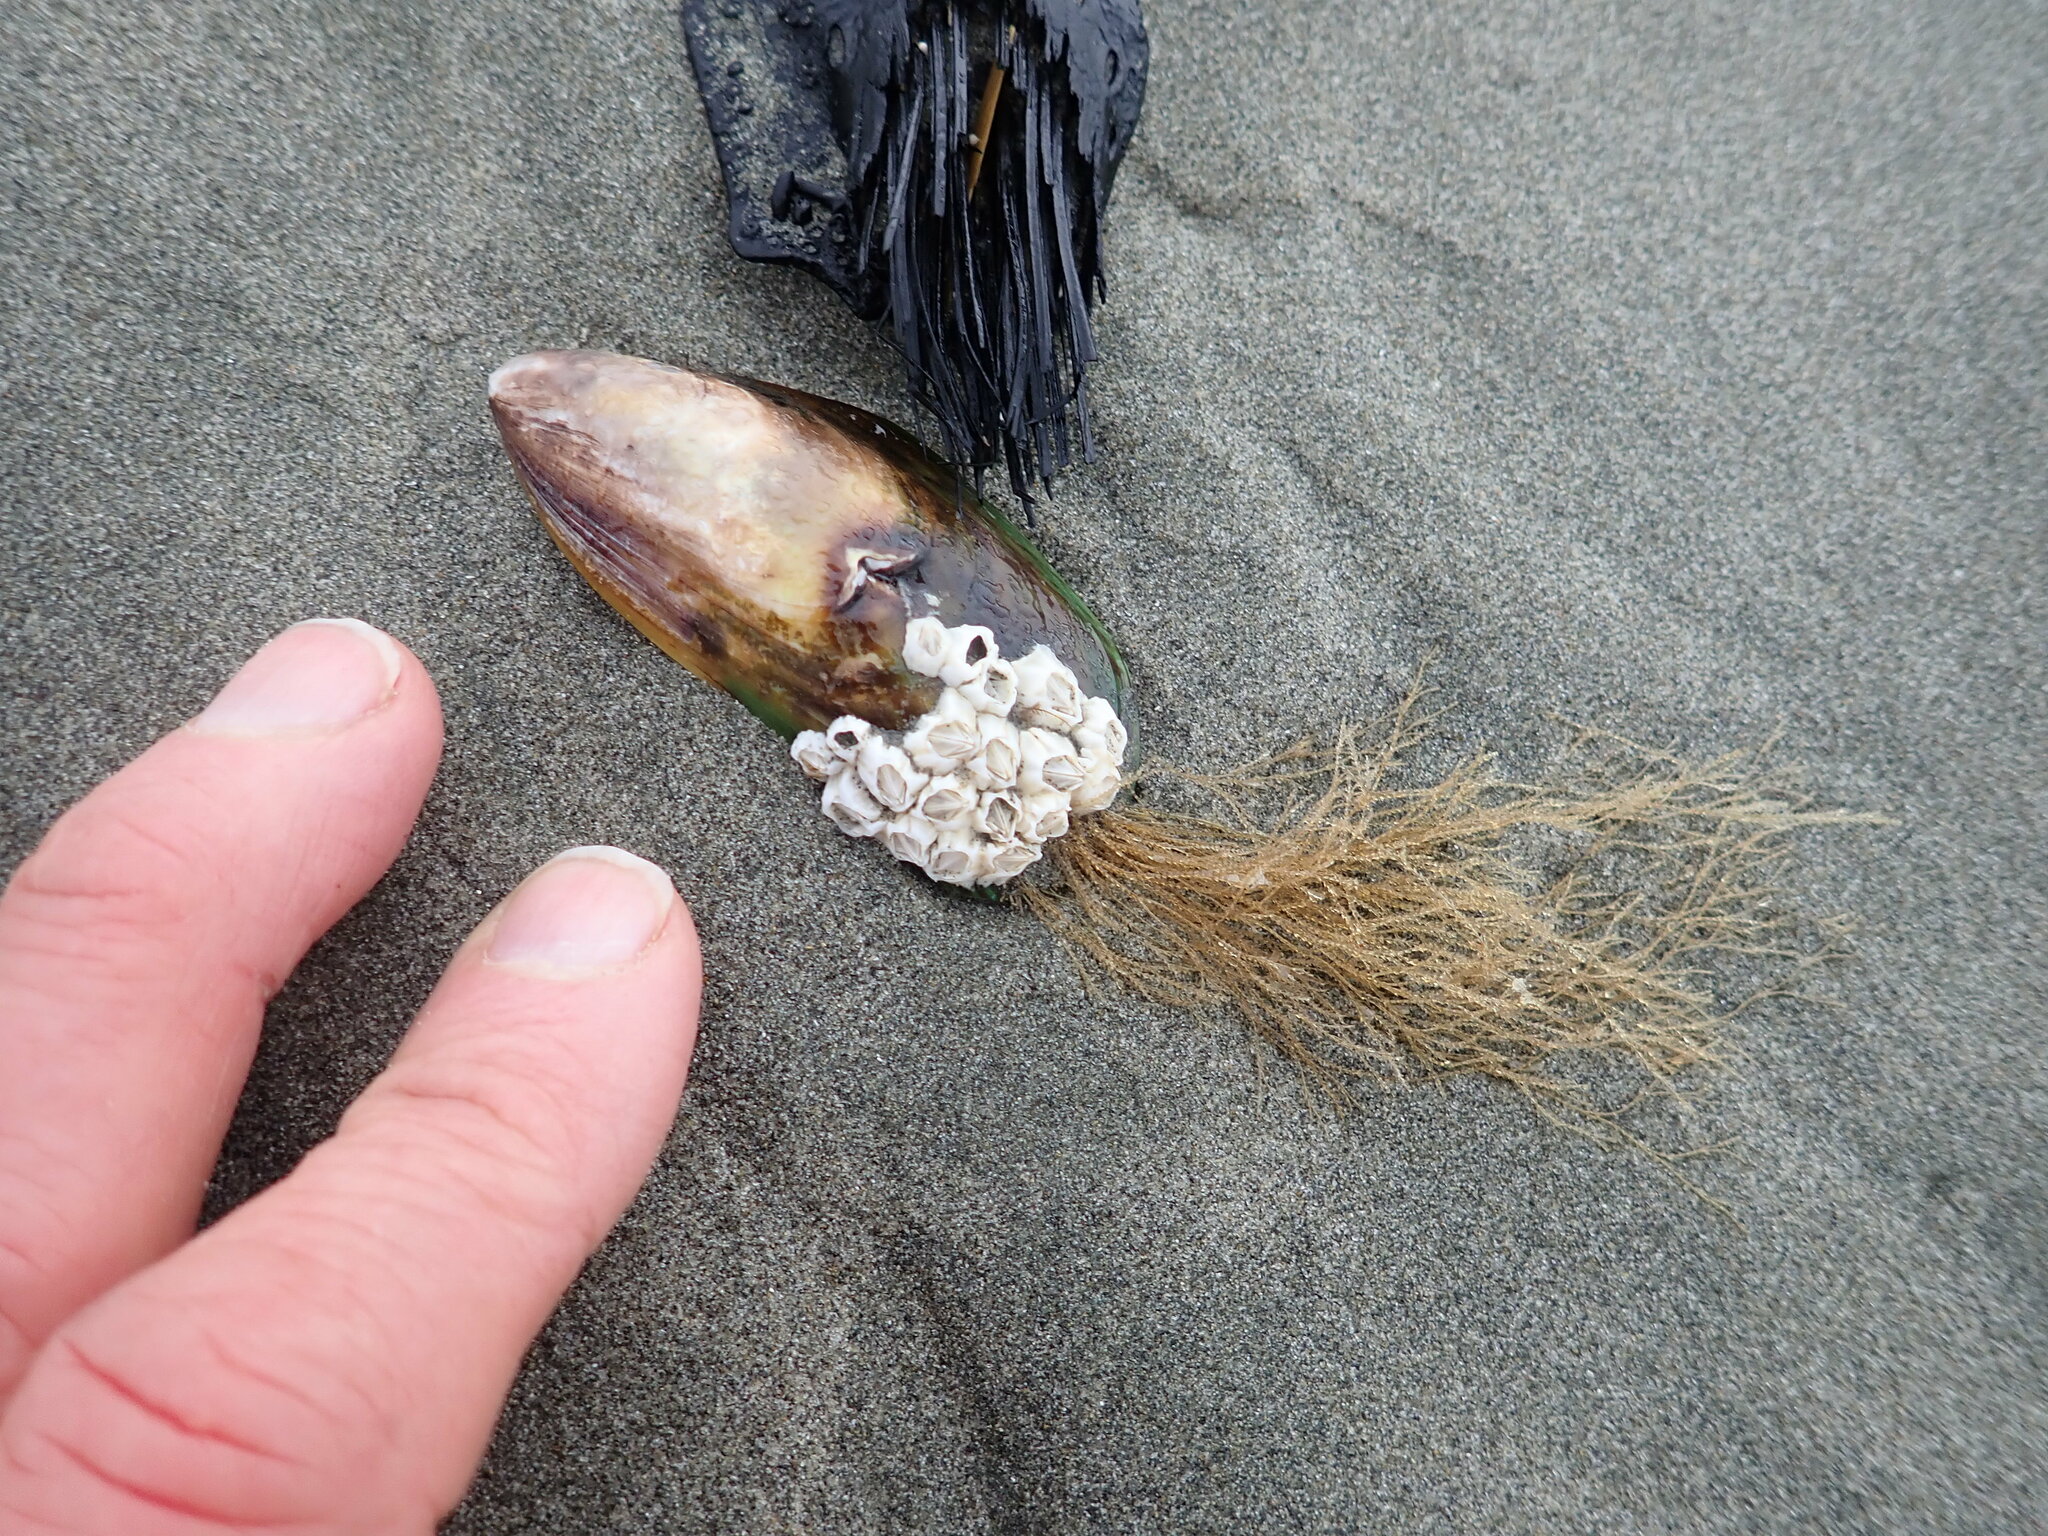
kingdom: Animalia
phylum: Cnidaria
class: Hydrozoa
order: Leptothecata
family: Sertulariidae
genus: Amphisbetia
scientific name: Amphisbetia bispinosa
